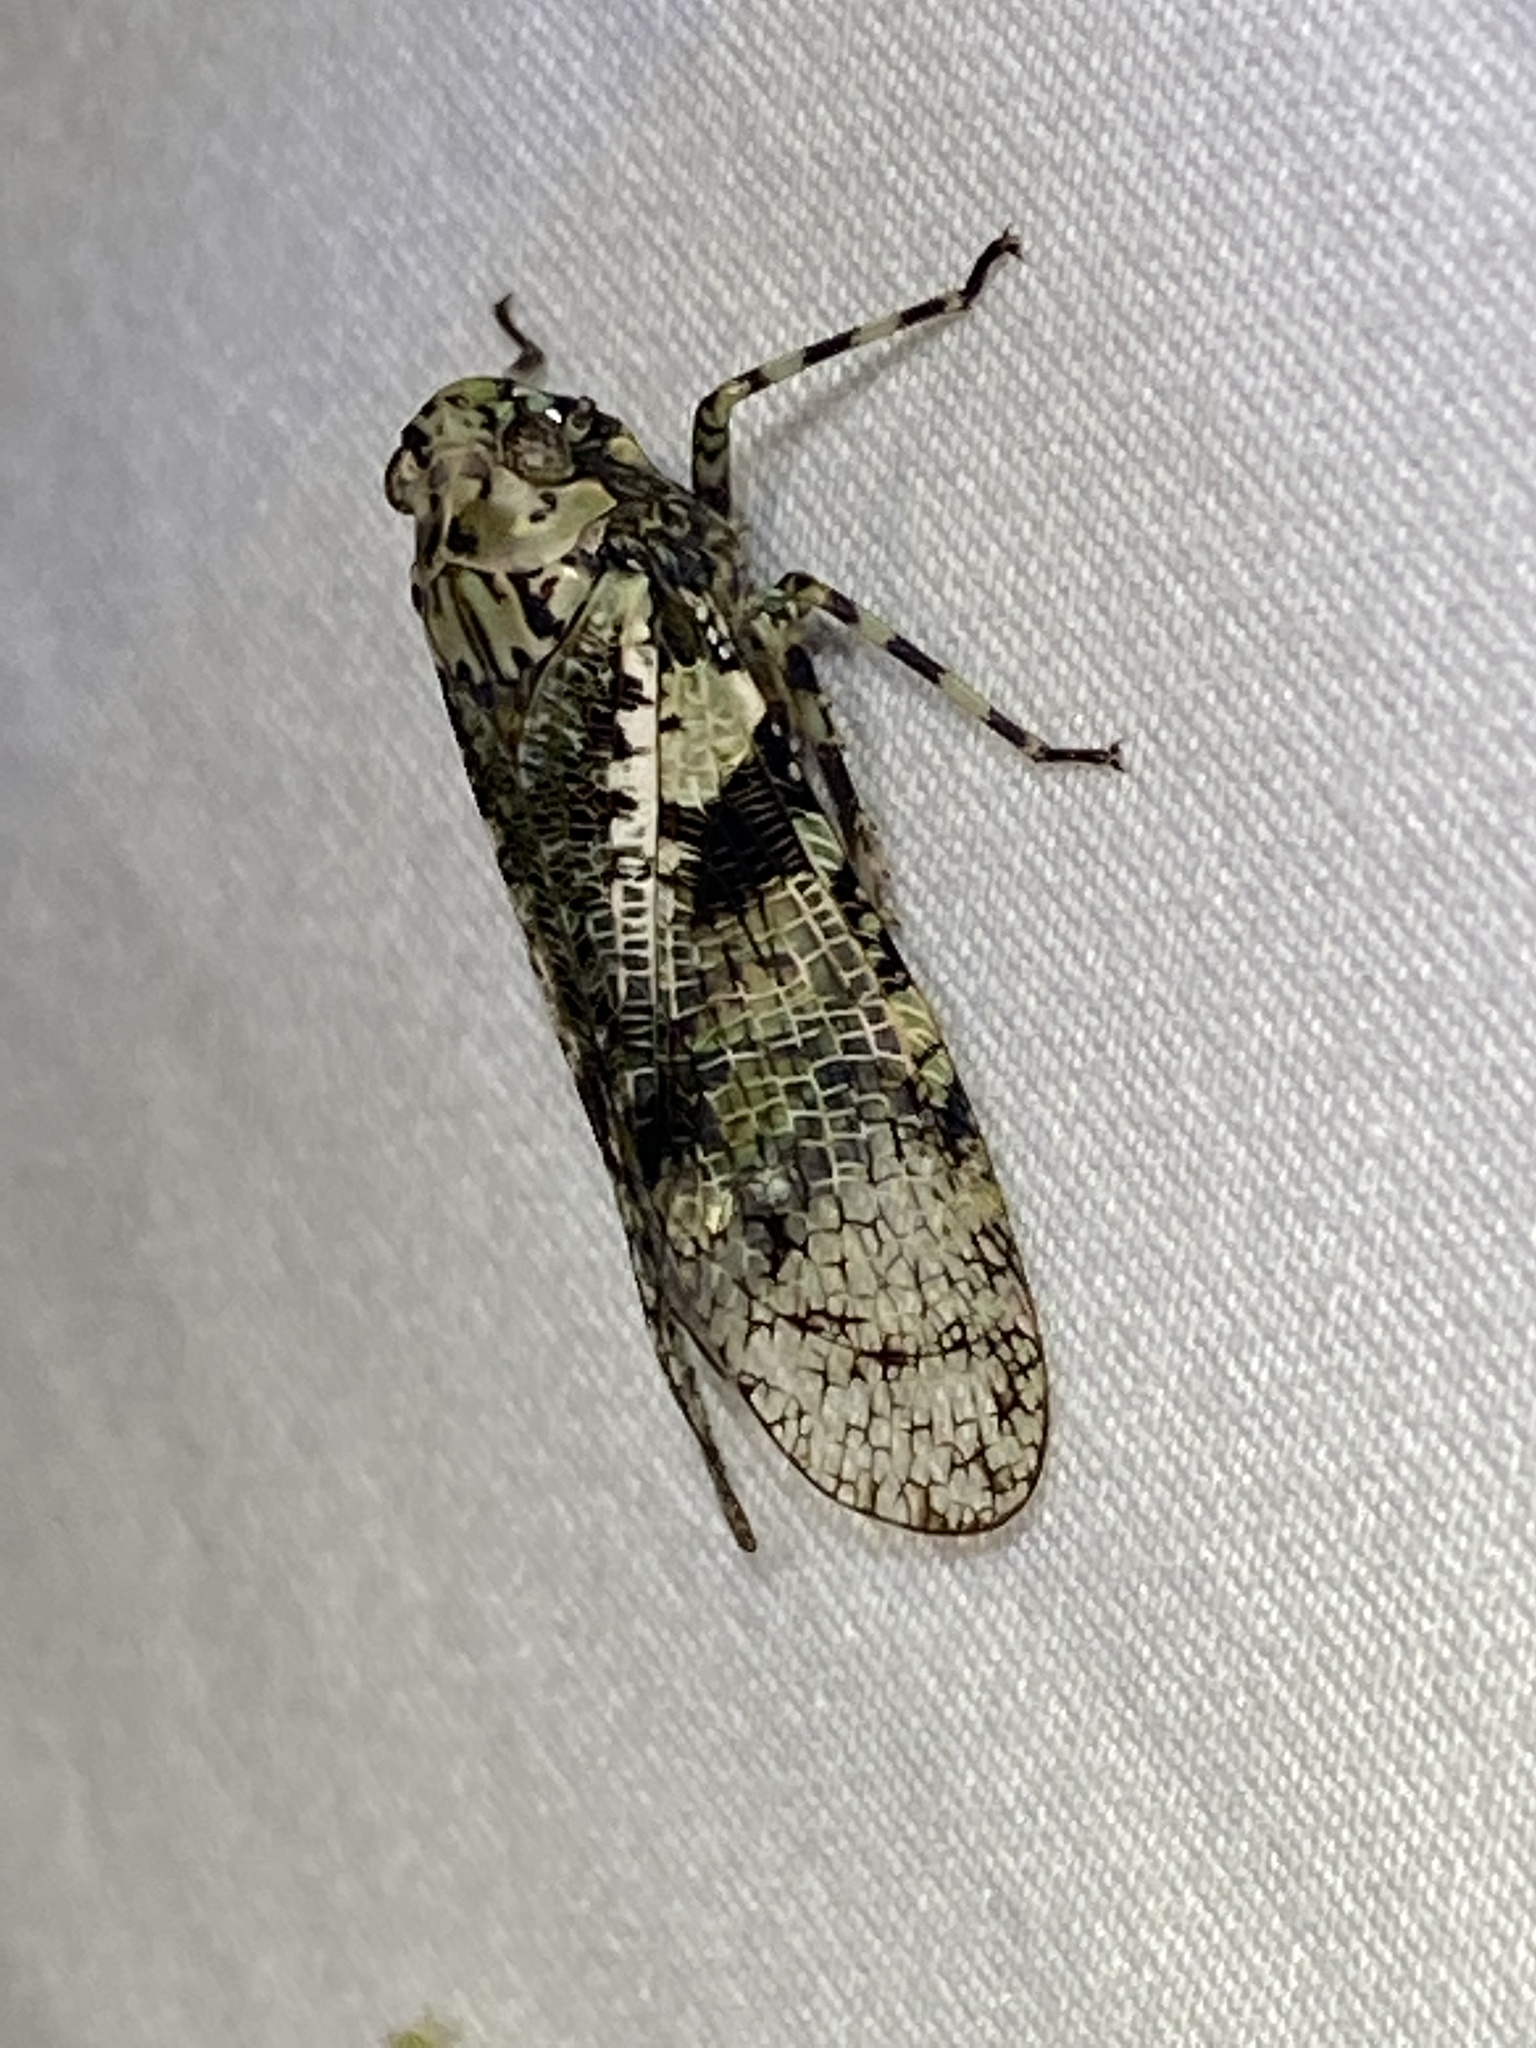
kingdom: Animalia
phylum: Arthropoda
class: Insecta
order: Hemiptera
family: Fulgoridae
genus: Calyptoproctus
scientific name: Calyptoproctus marmoratus
